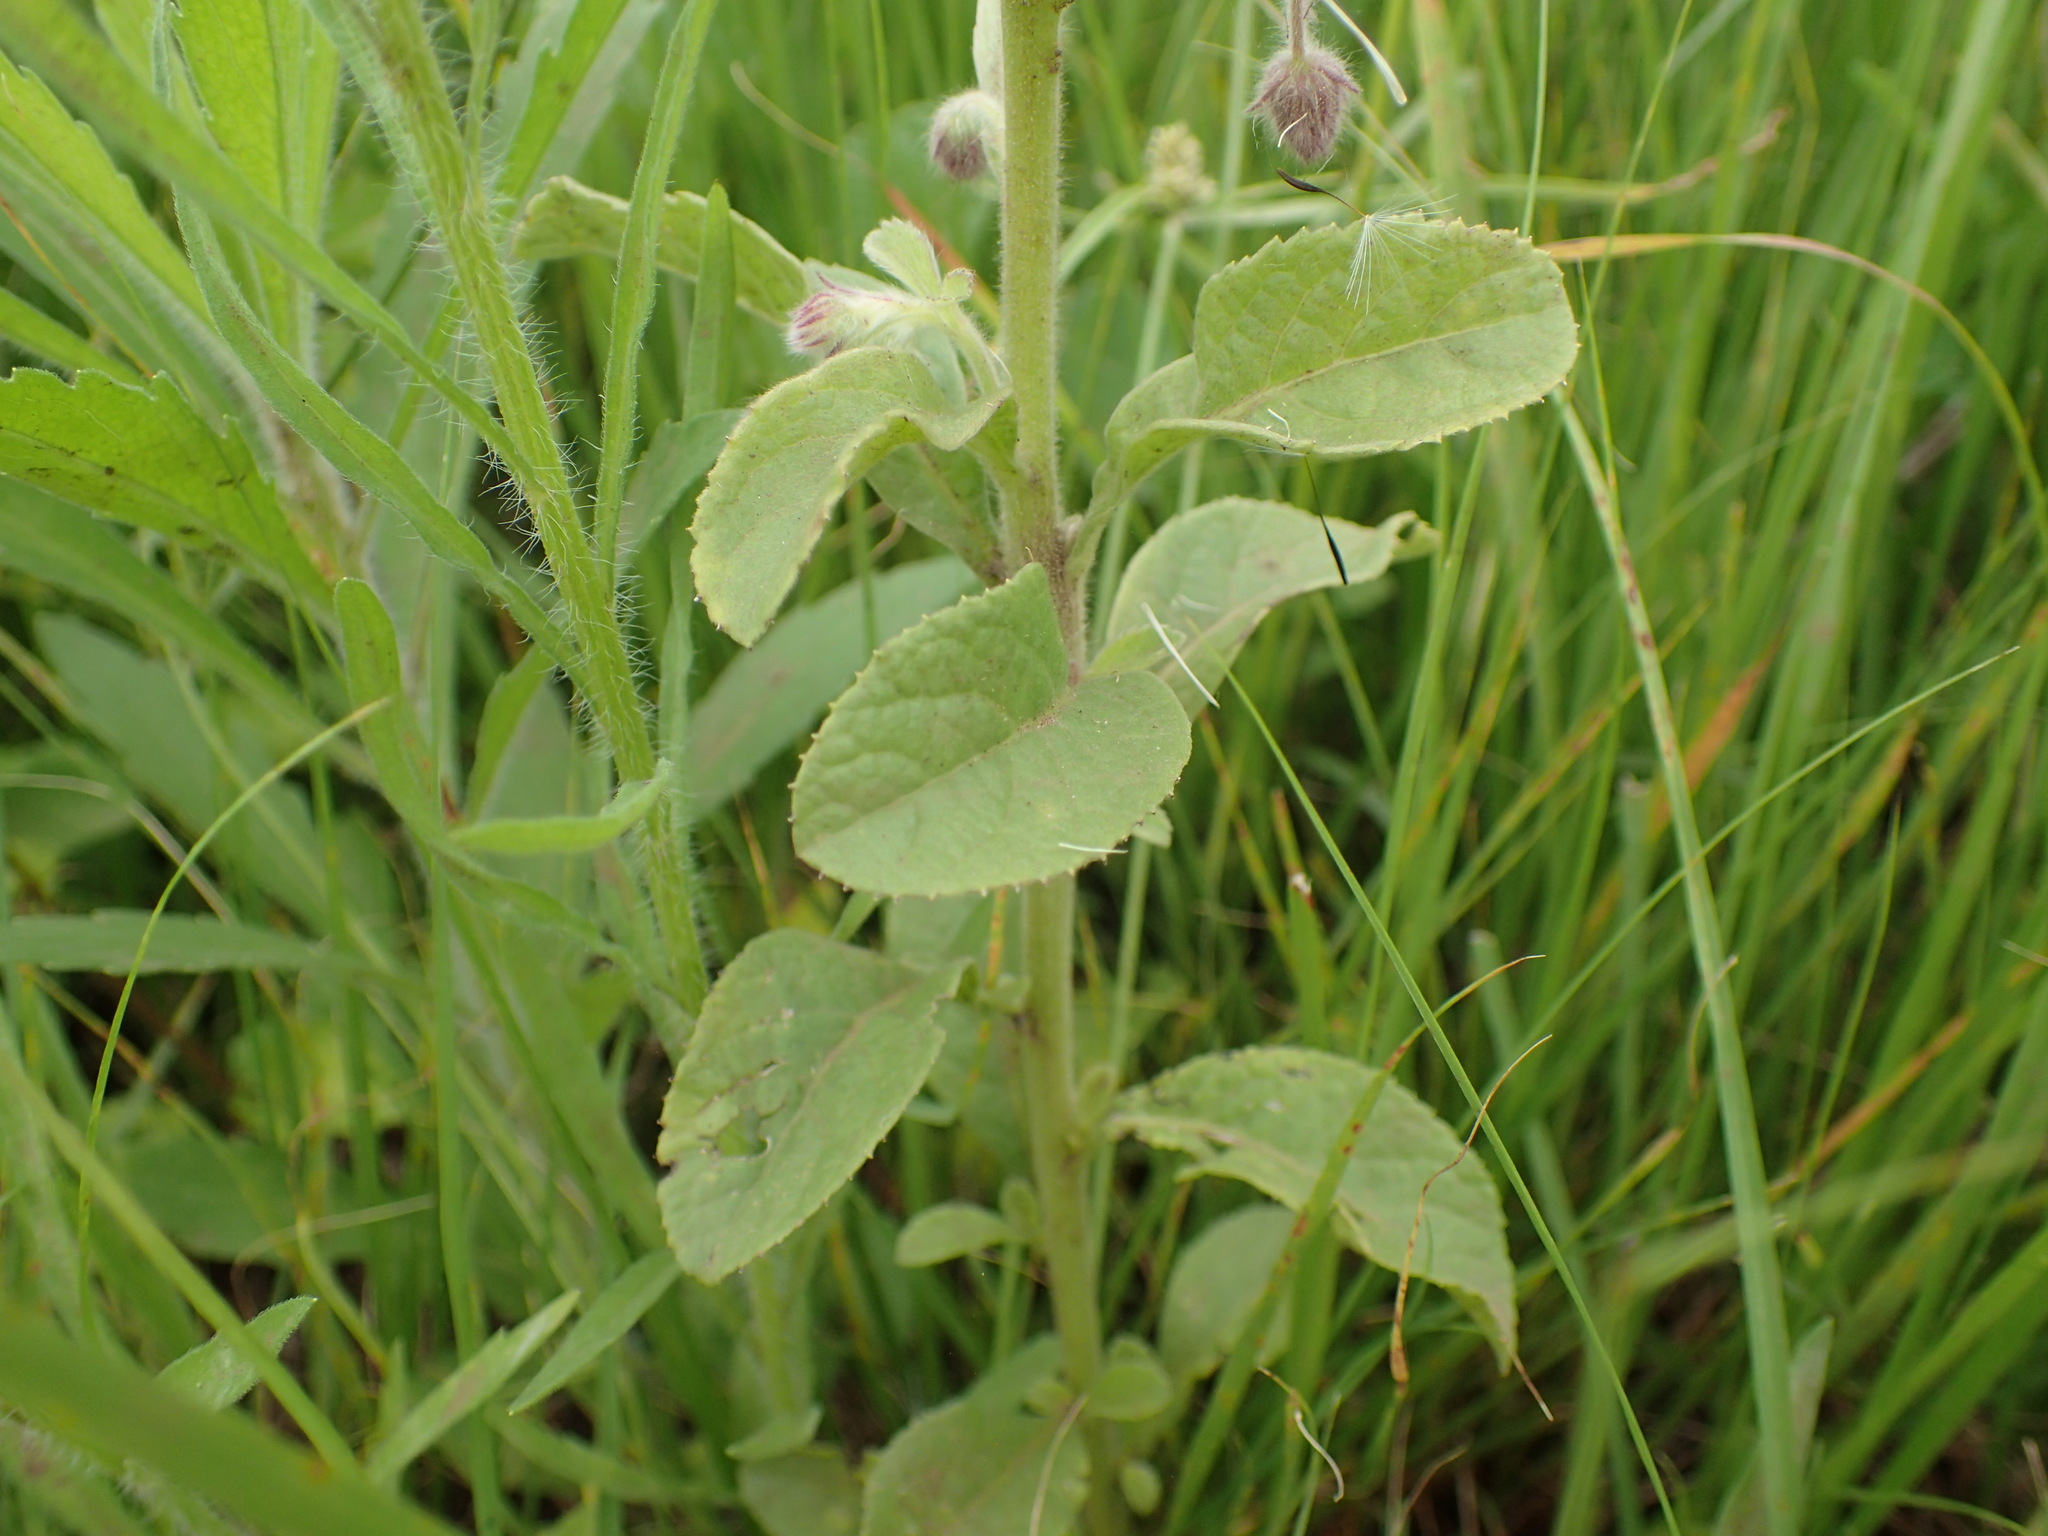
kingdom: Plantae
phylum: Tracheophyta
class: Magnoliopsida
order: Asterales
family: Asteraceae
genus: Blumea
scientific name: Blumea axillaris
